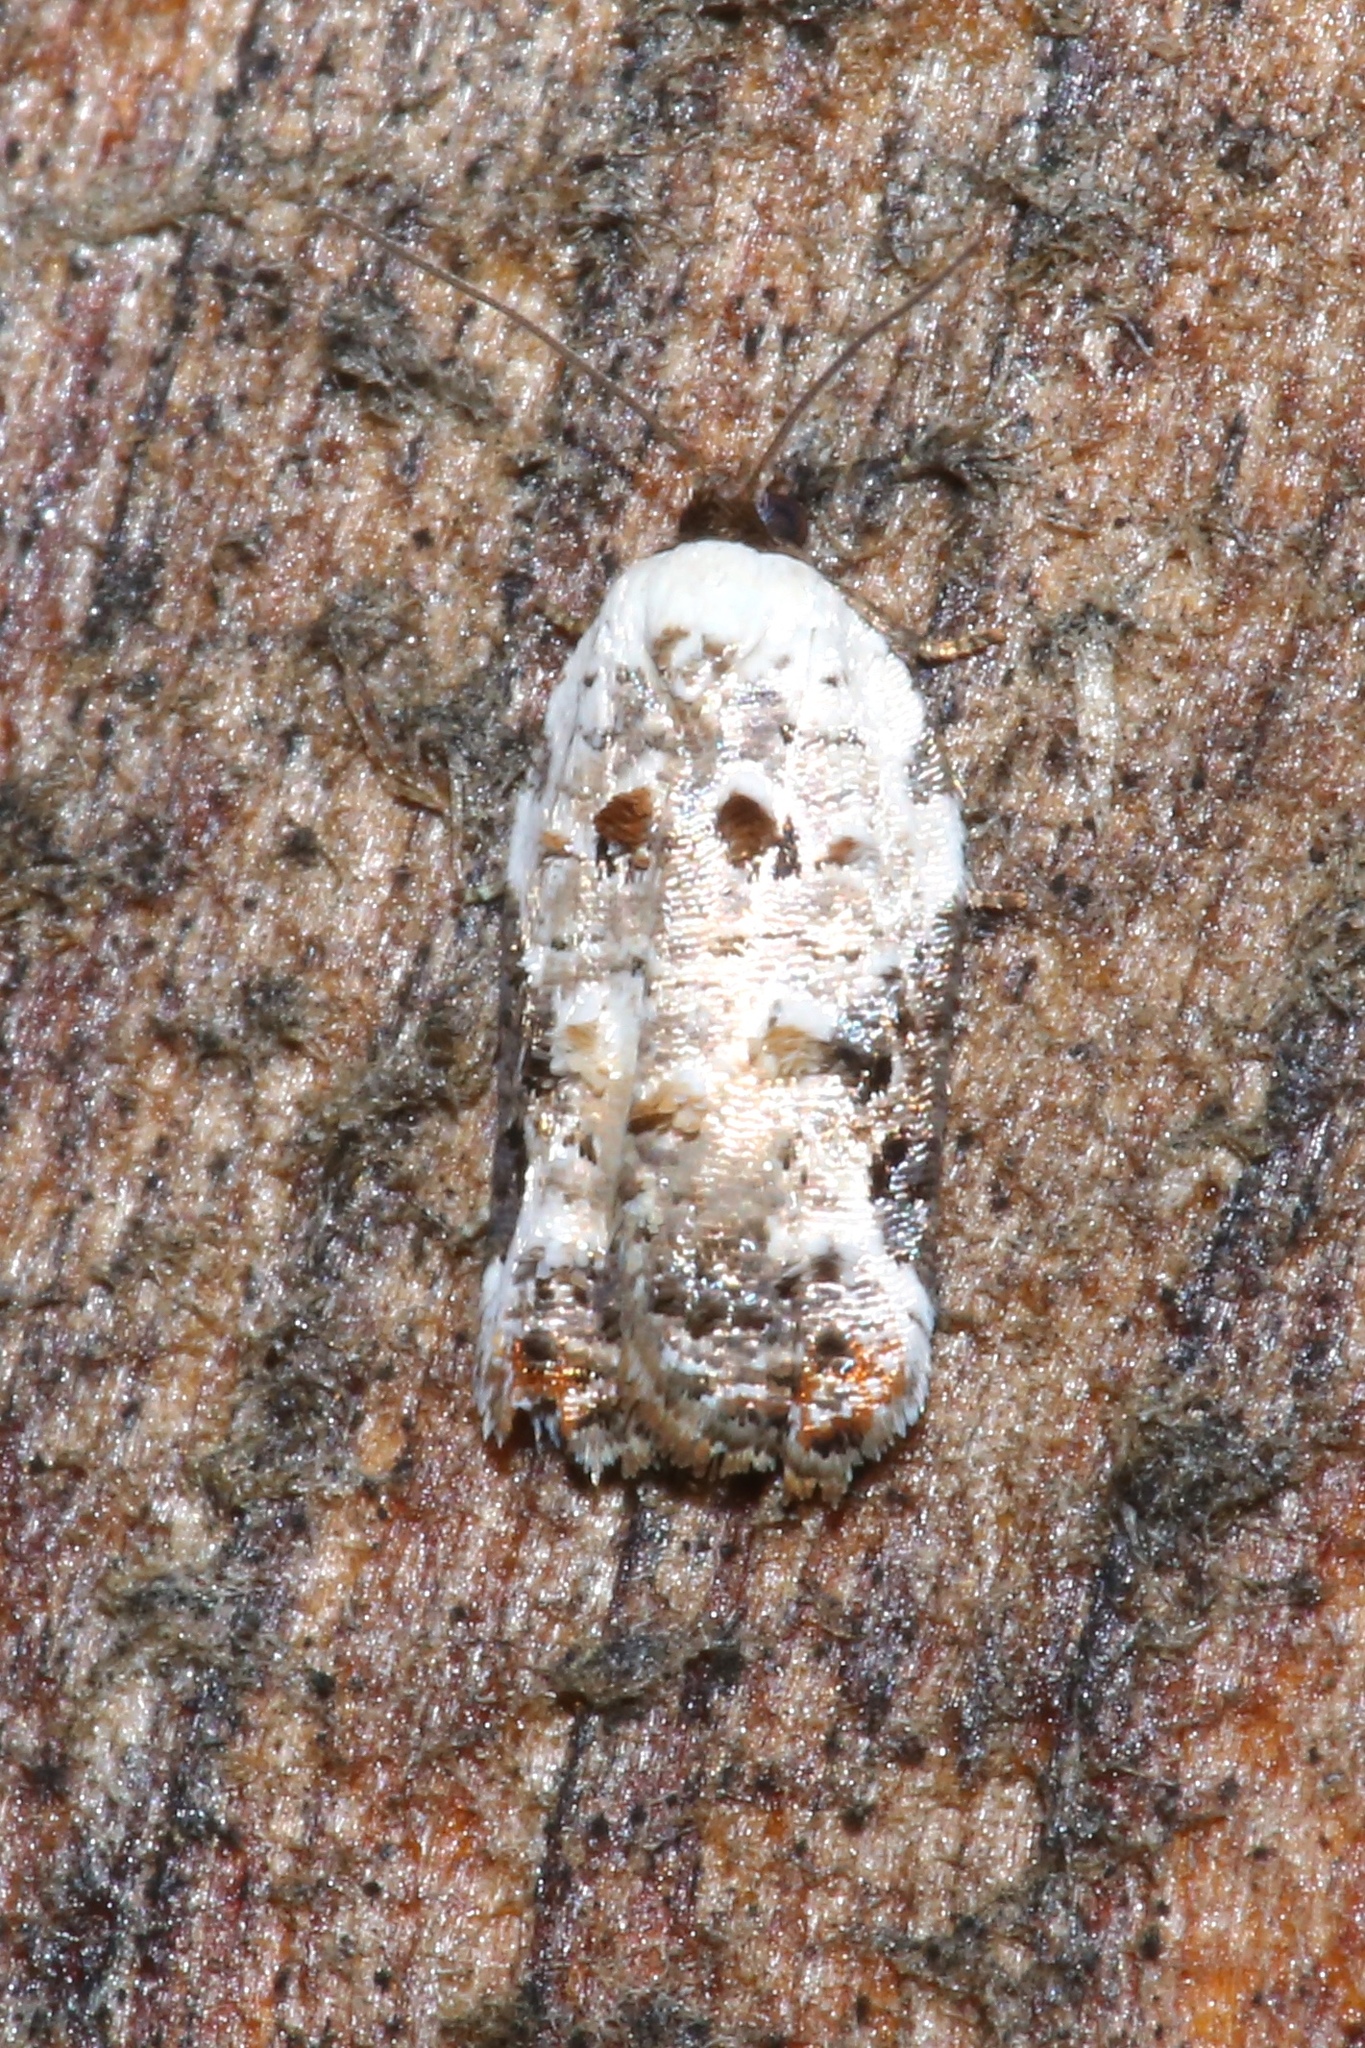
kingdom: Animalia
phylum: Arthropoda
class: Insecta
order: Lepidoptera
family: Tortricidae
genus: Acleris
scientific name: Acleris nivisellana
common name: Snowy-shouldered acleris moth
